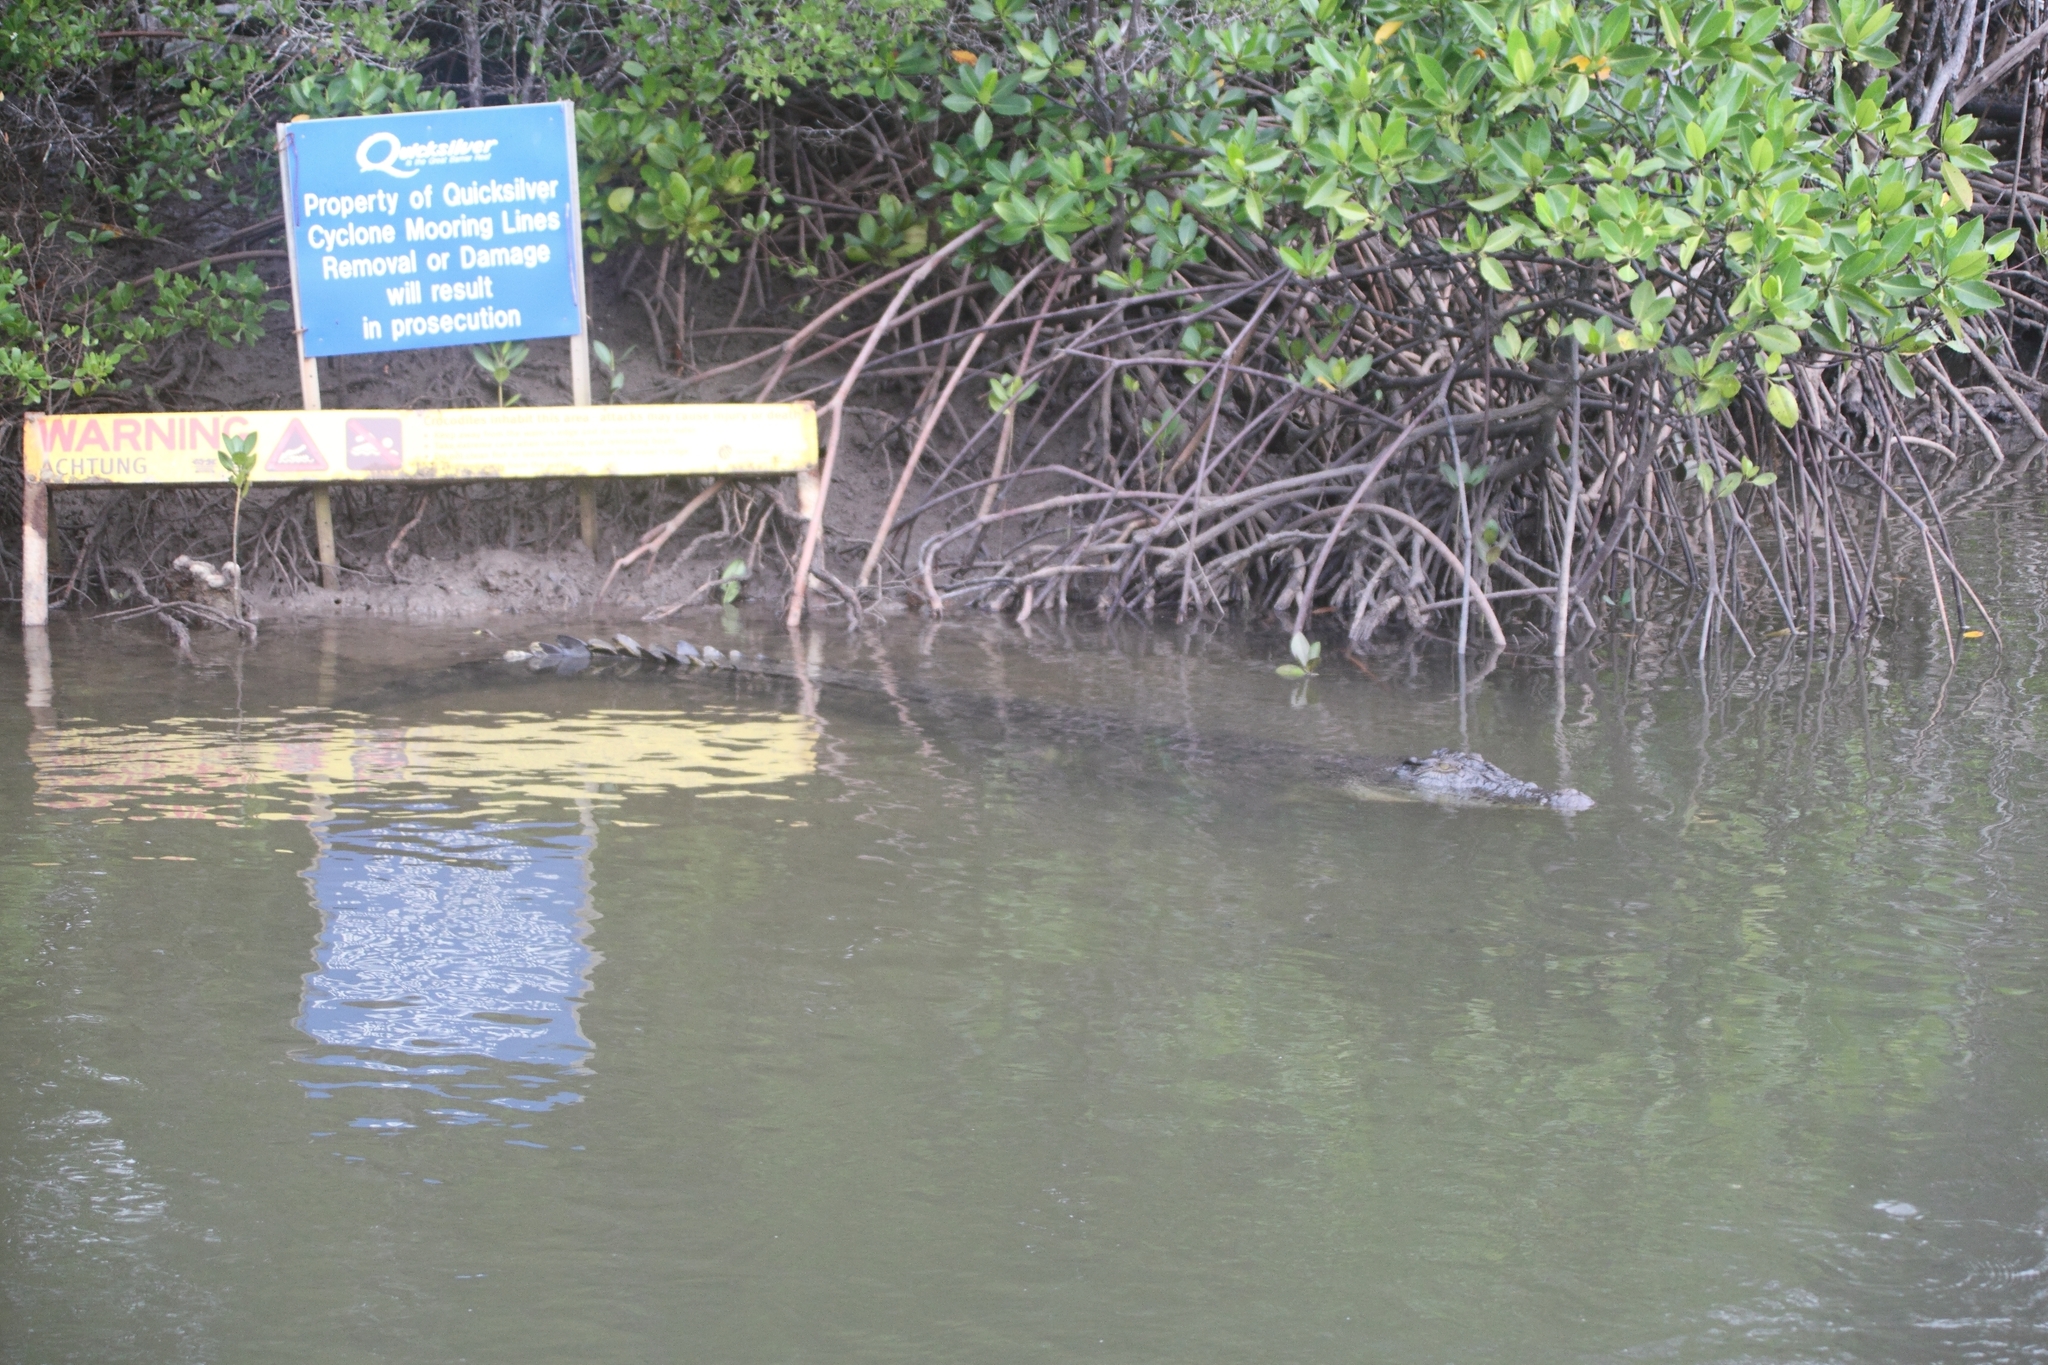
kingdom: Animalia
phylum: Chordata
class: Crocodylia
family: Crocodylidae
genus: Crocodylus
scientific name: Crocodylus porosus
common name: Saltwater crocodile
